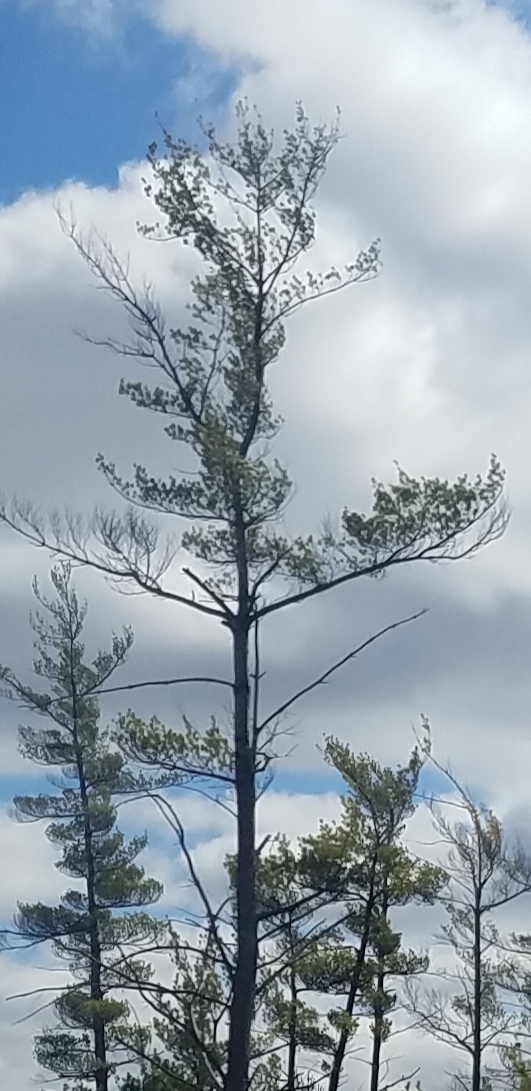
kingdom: Plantae
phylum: Tracheophyta
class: Pinopsida
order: Pinales
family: Pinaceae
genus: Pinus
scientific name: Pinus strobus
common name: Weymouth pine
